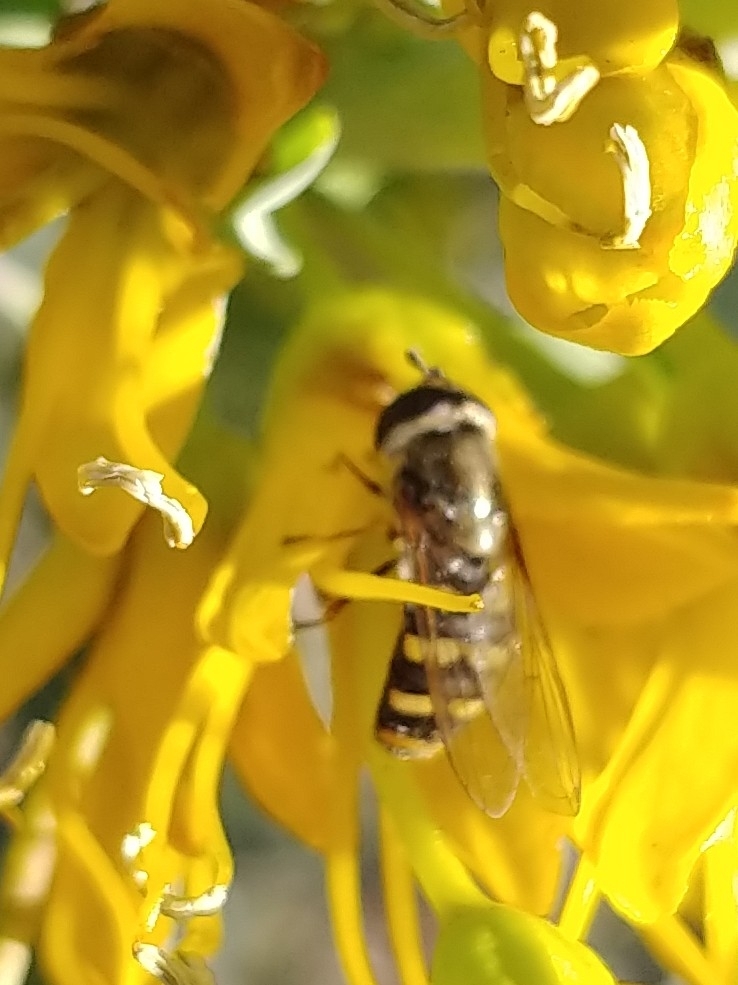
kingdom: Animalia
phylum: Arthropoda
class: Insecta
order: Diptera
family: Syrphidae
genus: Eupeodes
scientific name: Eupeodes fumipennis
